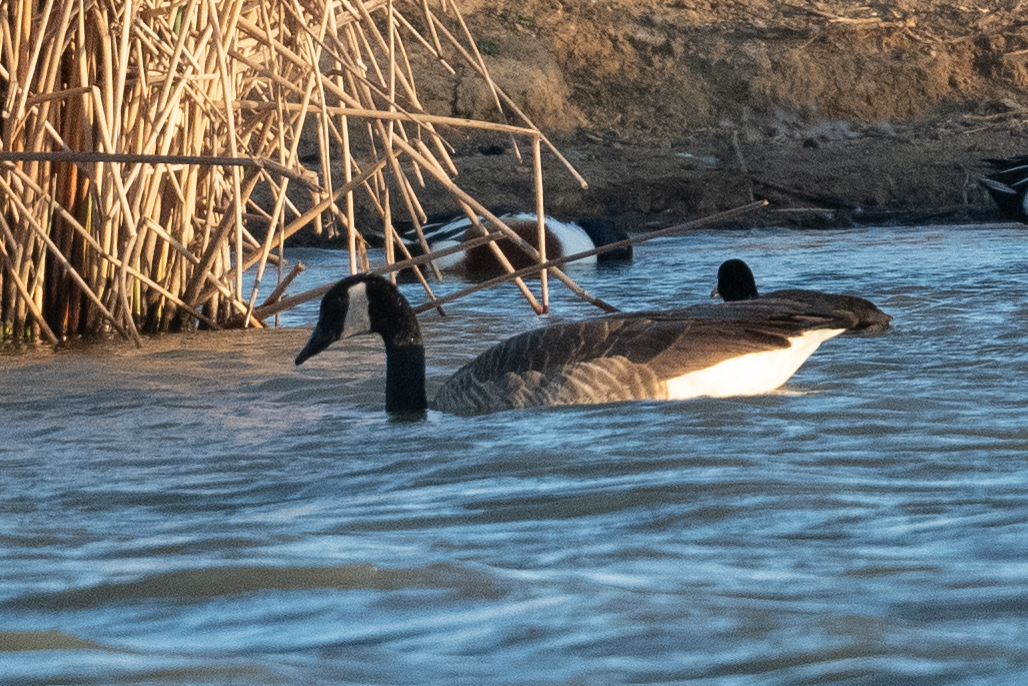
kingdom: Animalia
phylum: Chordata
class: Aves
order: Anseriformes
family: Anatidae
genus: Branta
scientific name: Branta canadensis
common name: Canada goose
